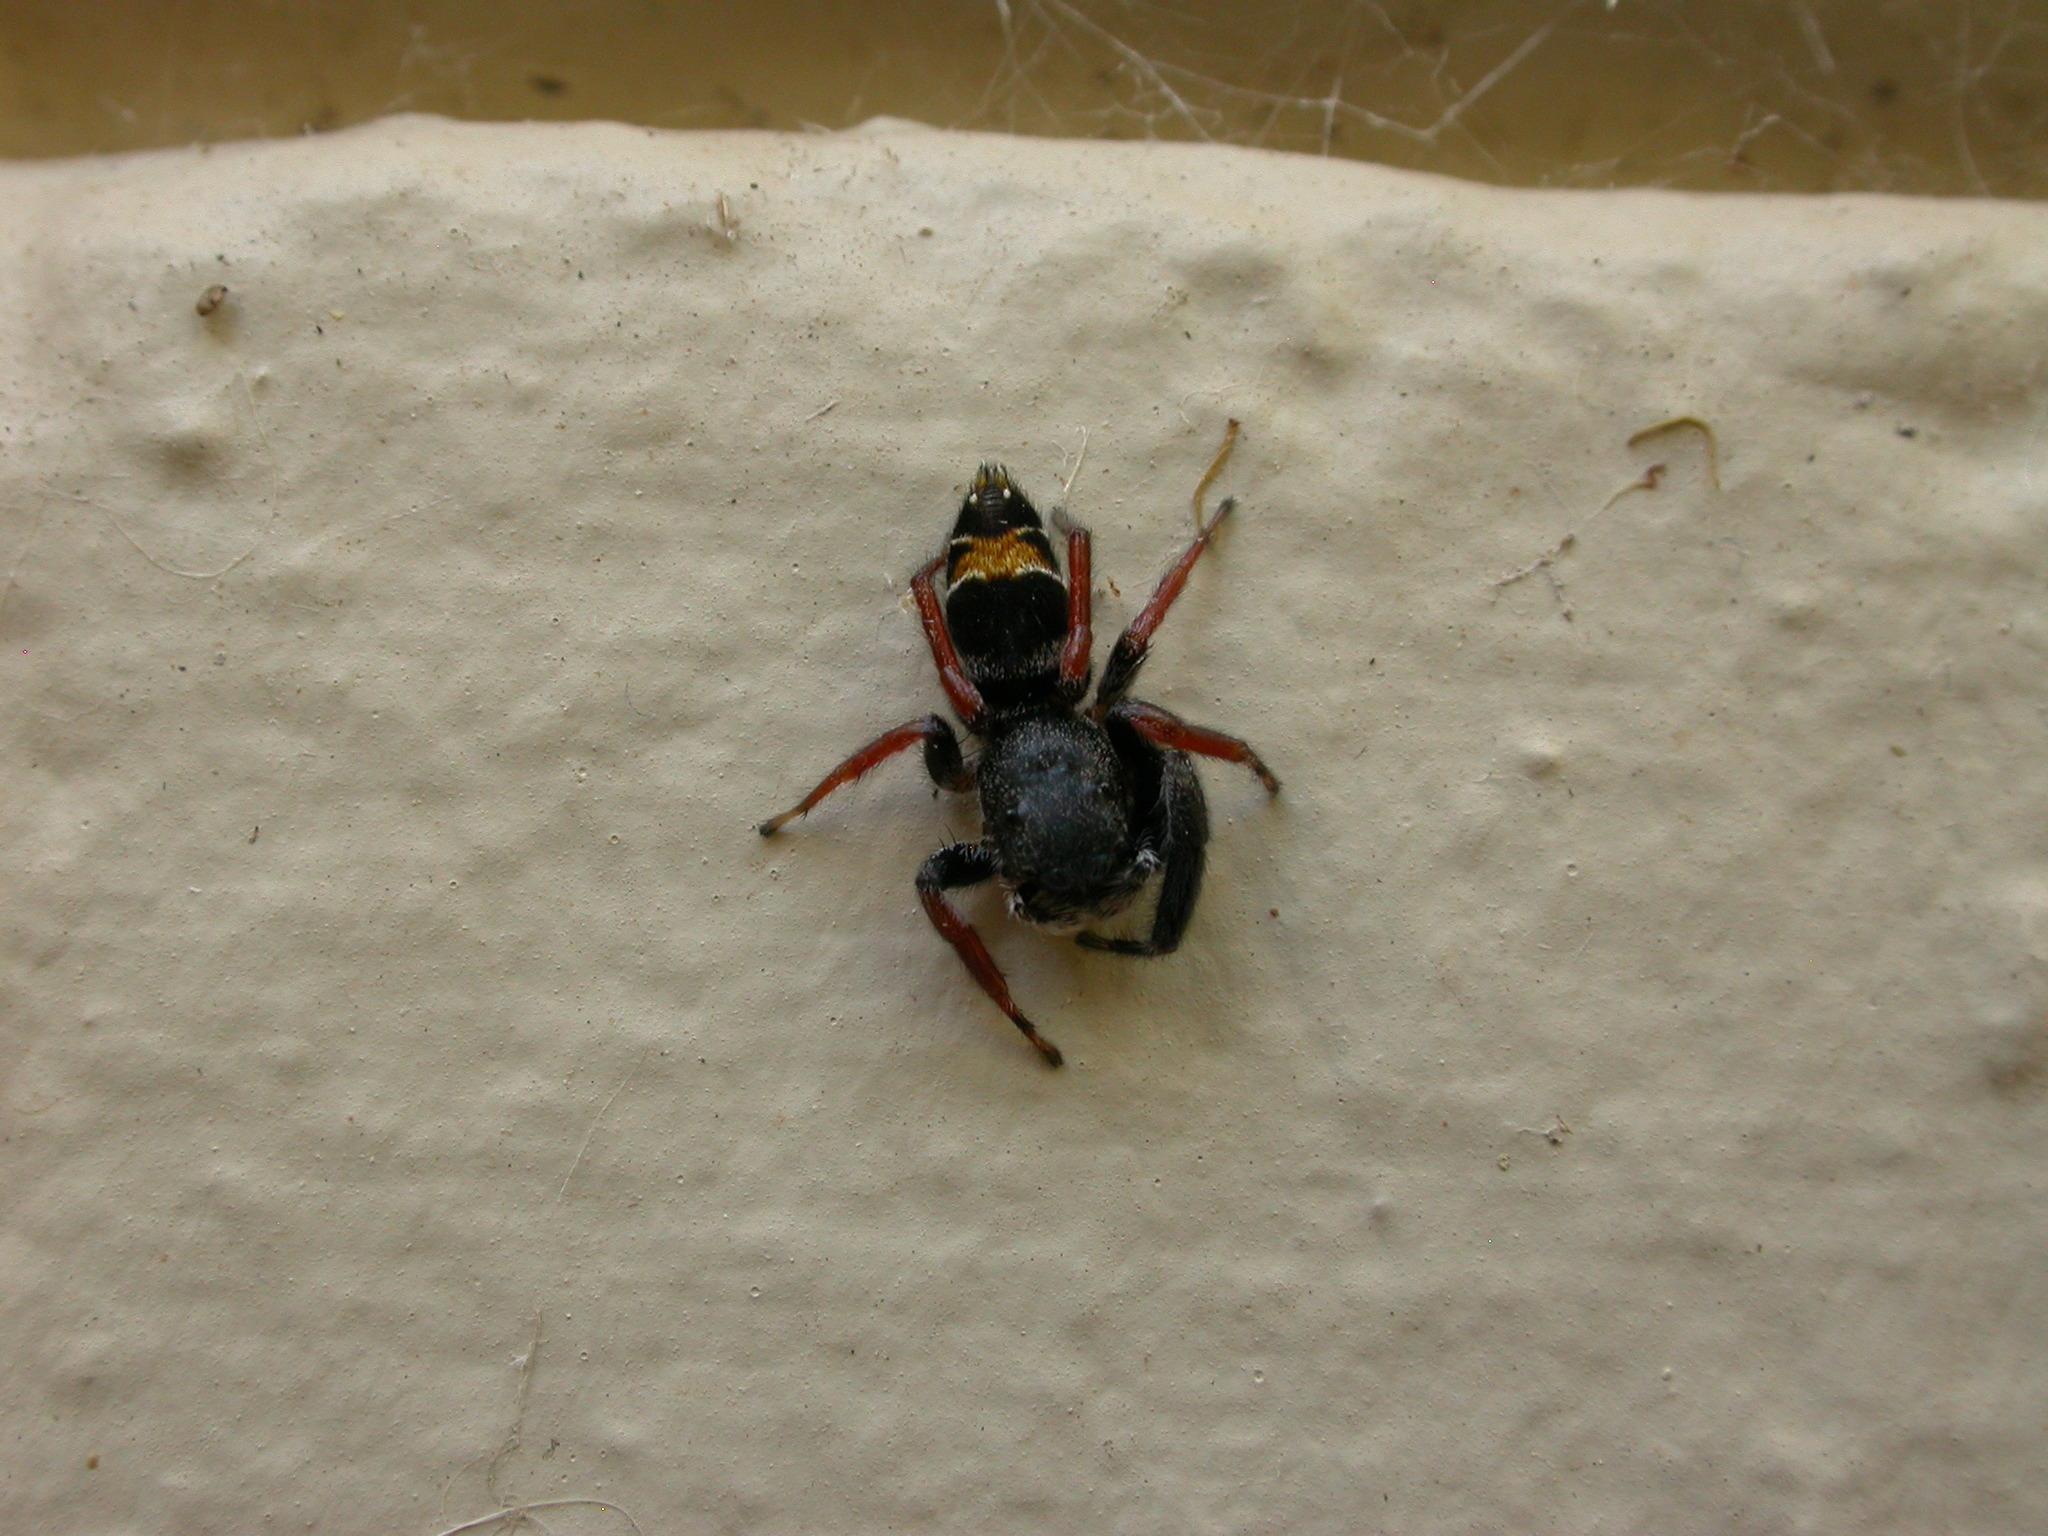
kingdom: Animalia
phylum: Arthropoda
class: Arachnida
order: Araneae
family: Salticidae
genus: Apricia
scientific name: Apricia jovialis
